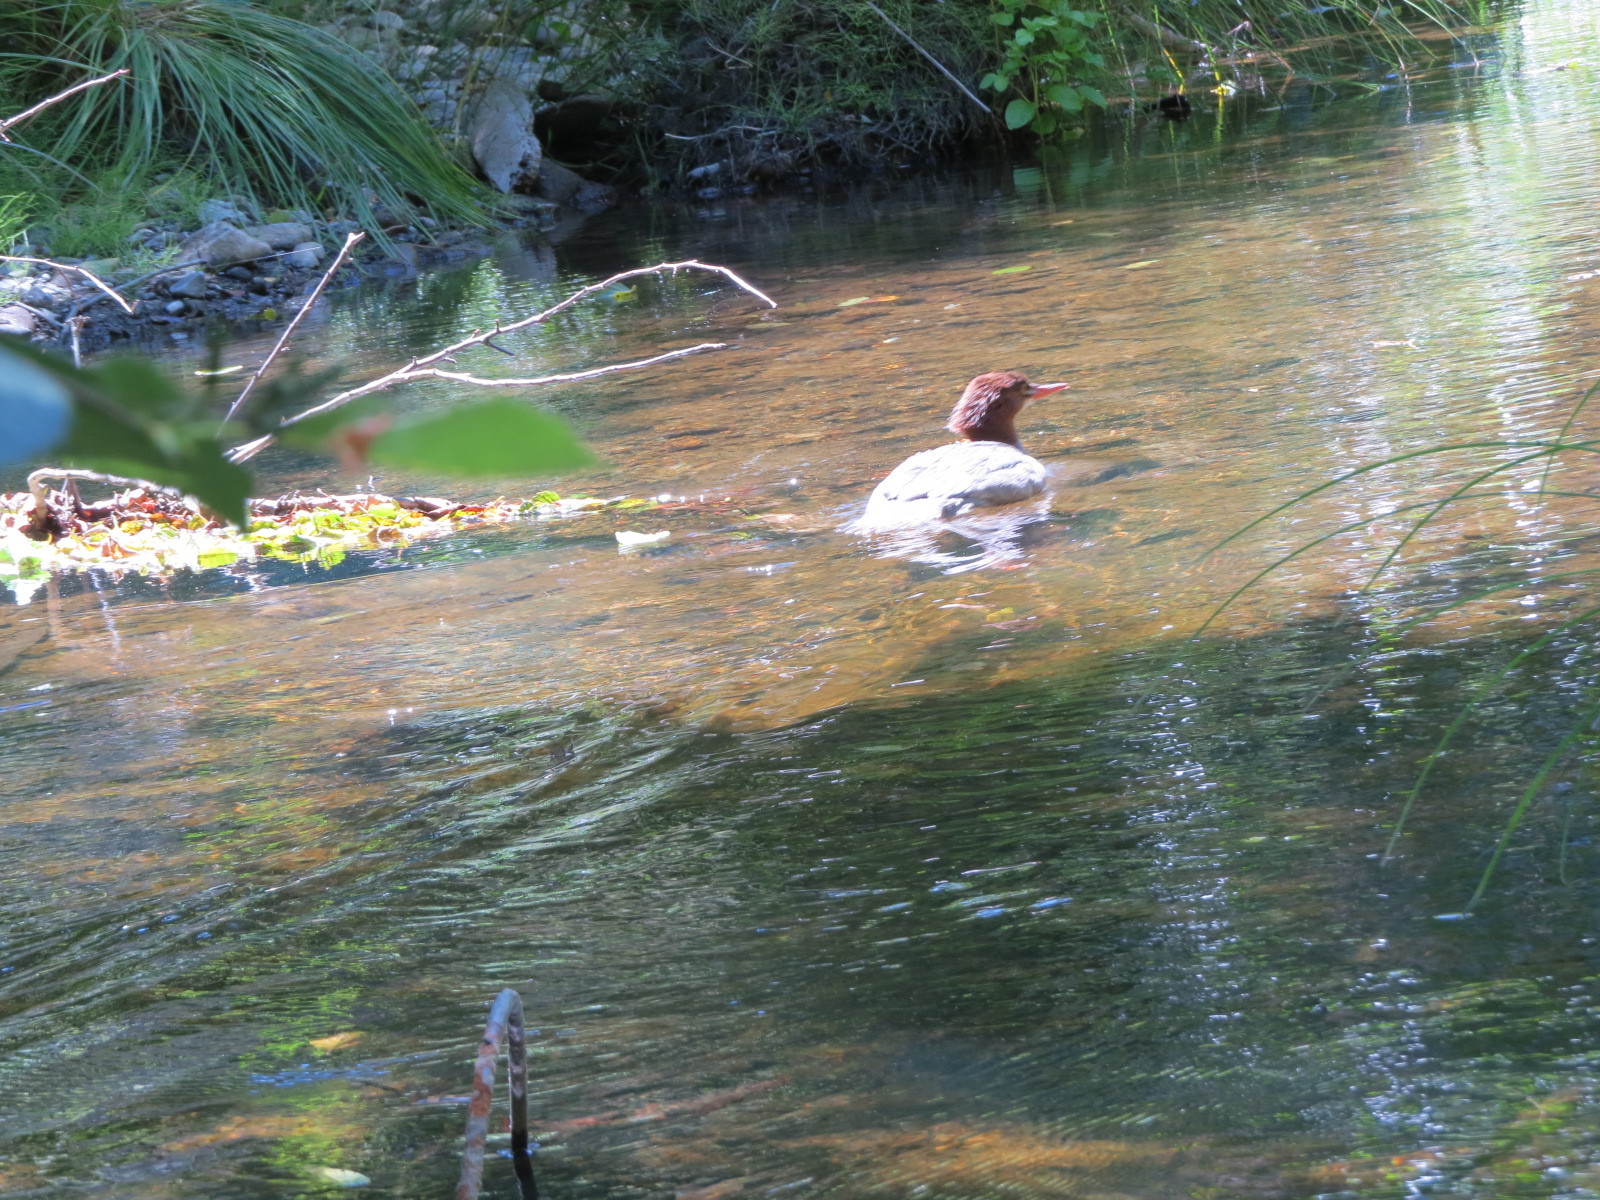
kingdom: Animalia
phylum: Chordata
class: Aves
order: Anseriformes
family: Anatidae
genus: Mergus
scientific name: Mergus merganser
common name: Common merganser
